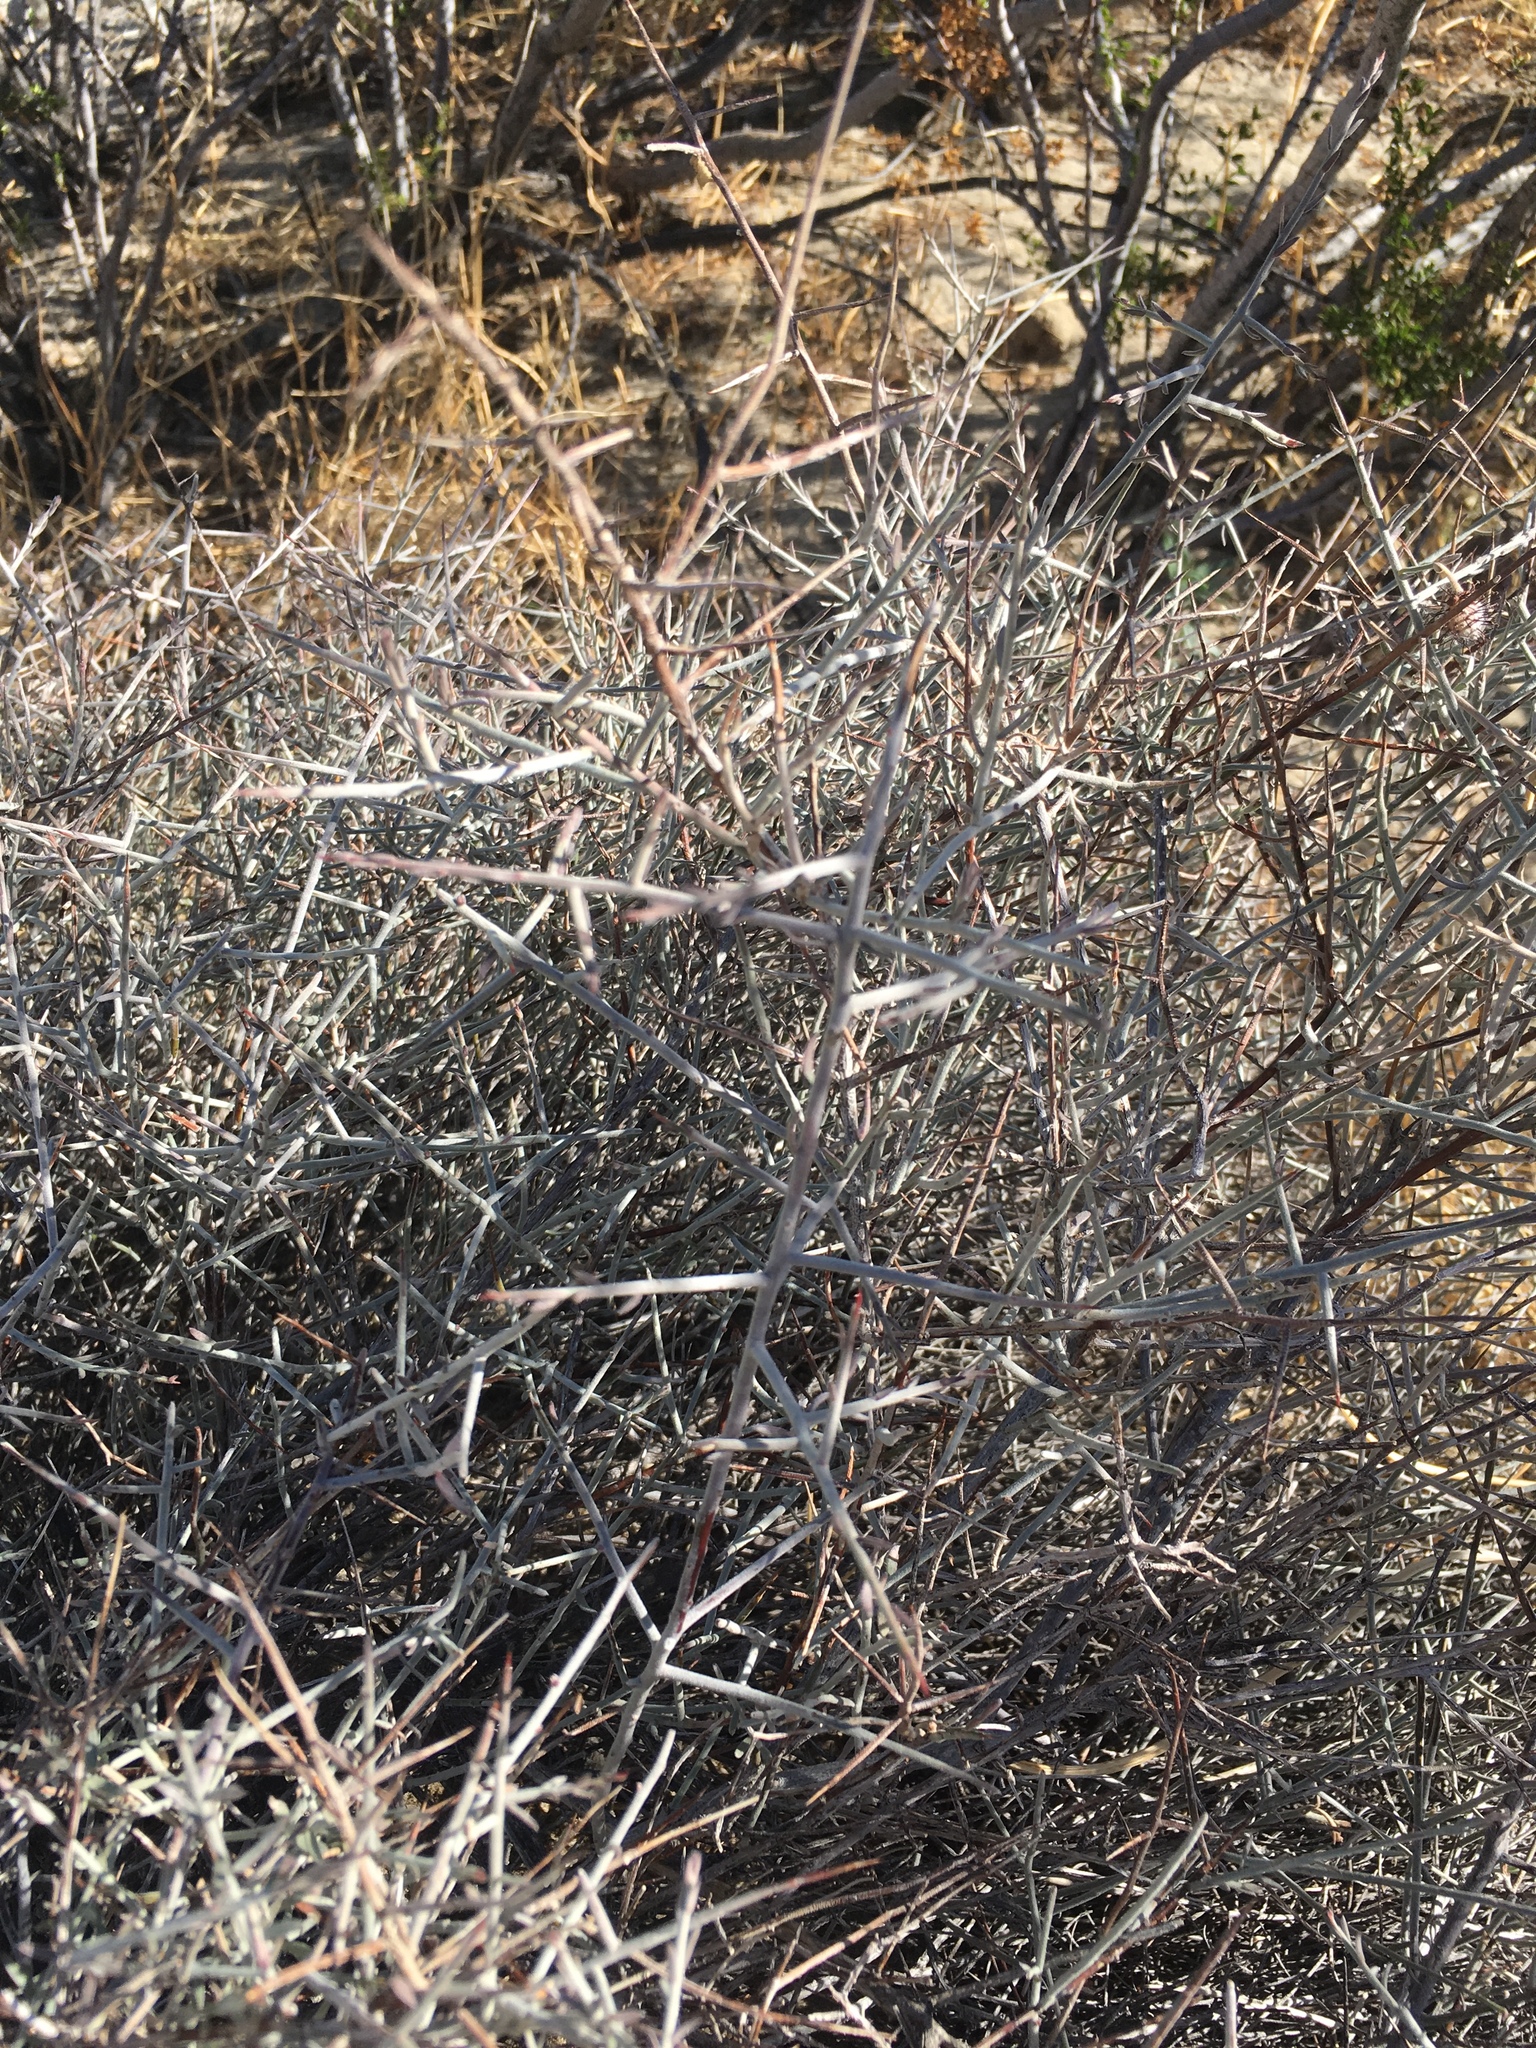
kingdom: Plantae
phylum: Tracheophyta
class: Magnoliopsida
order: Zygophyllales
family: Krameriaceae
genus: Krameria
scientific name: Krameria bicolor
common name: White ratany
